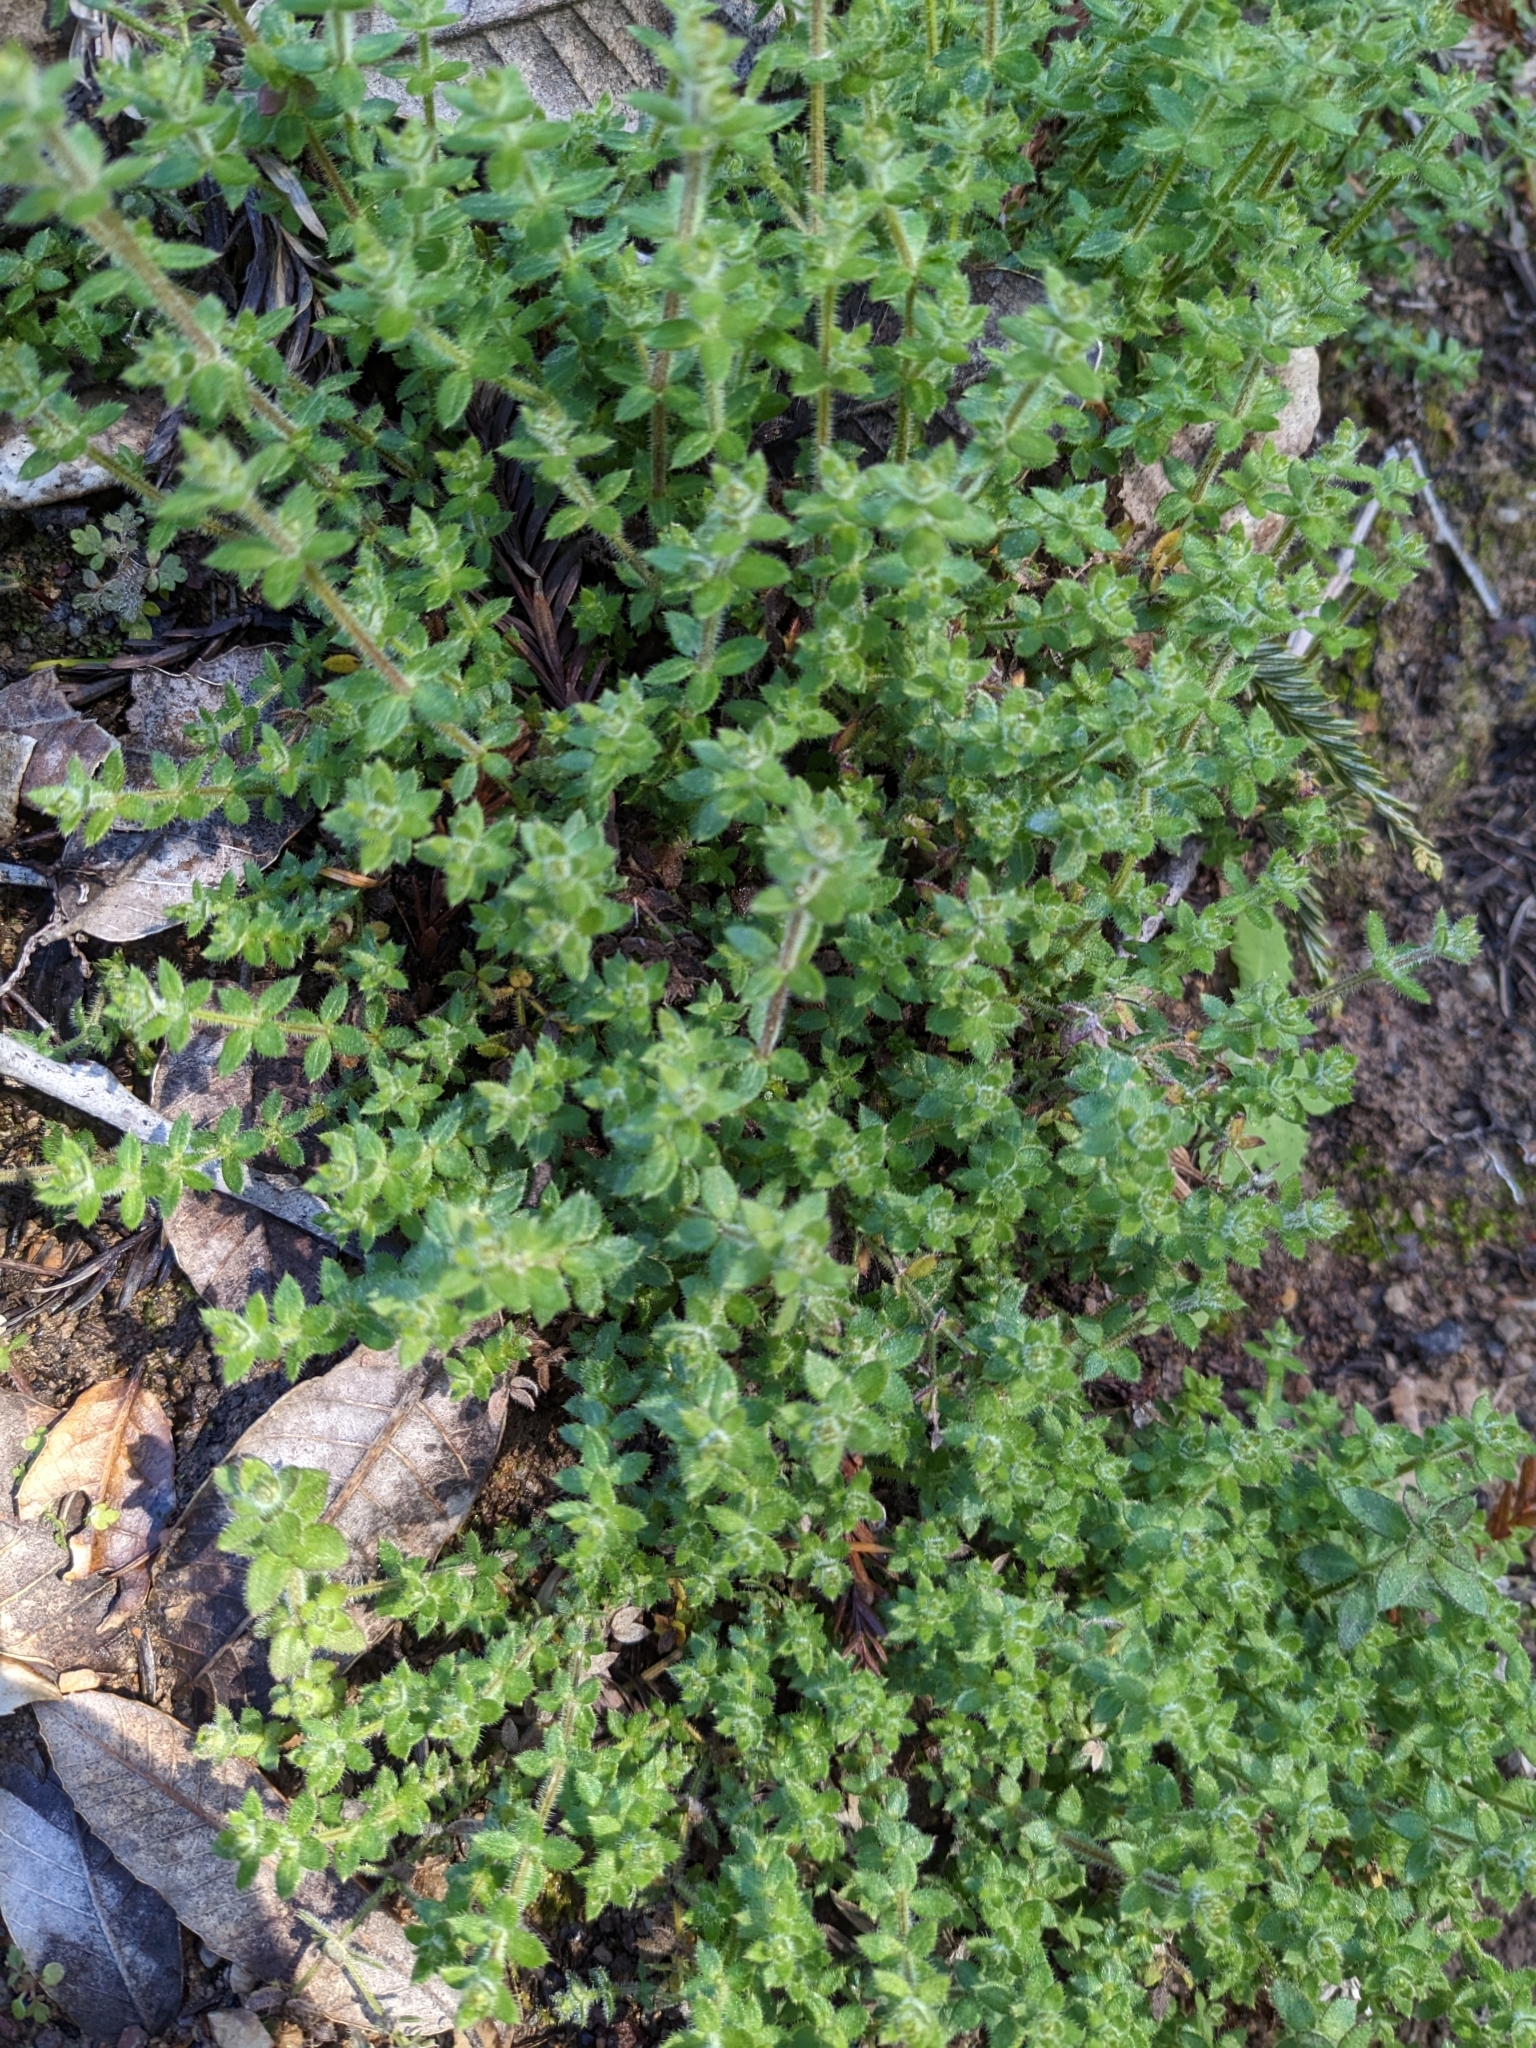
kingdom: Plantae
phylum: Tracheophyta
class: Magnoliopsida
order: Gentianales
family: Rubiaceae
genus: Galium
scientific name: Galium californicum
